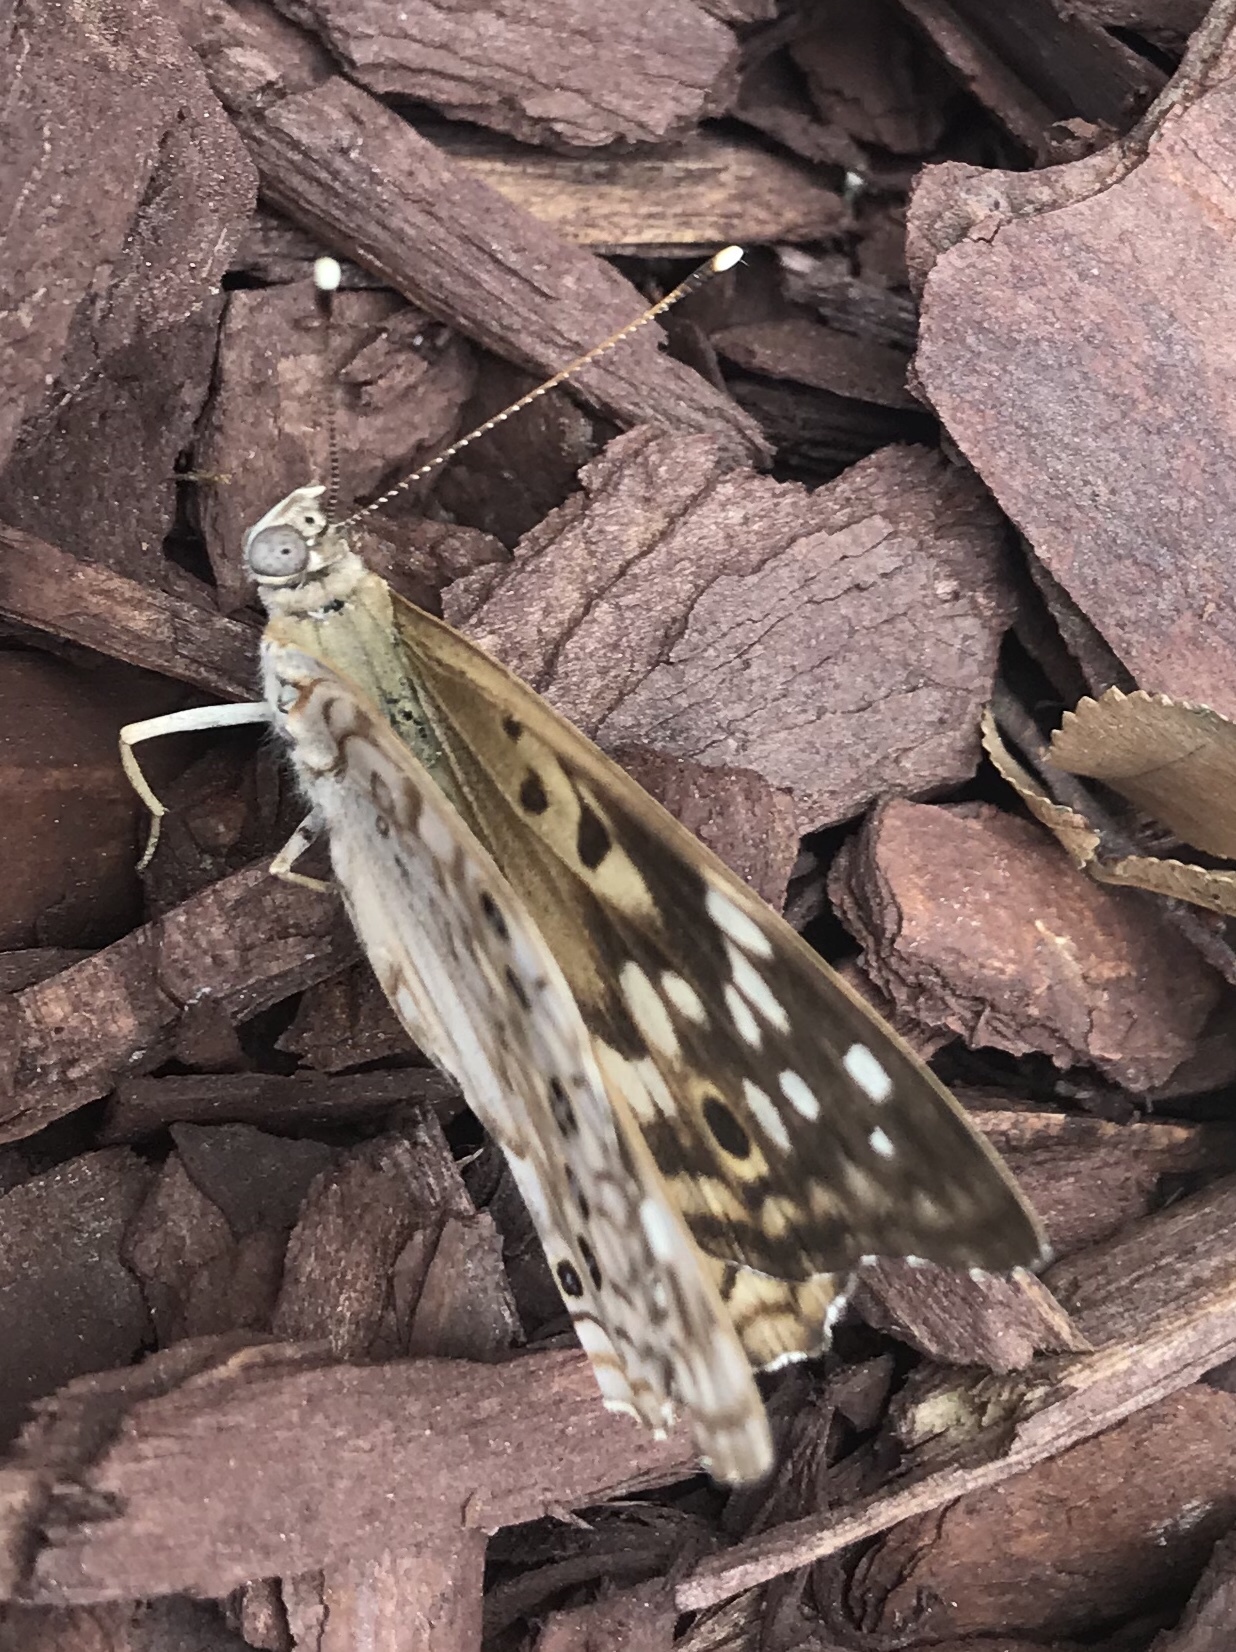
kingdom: Animalia
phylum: Arthropoda
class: Insecta
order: Lepidoptera
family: Nymphalidae
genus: Asterocampa
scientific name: Asterocampa celtis
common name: Hackberry emperor
